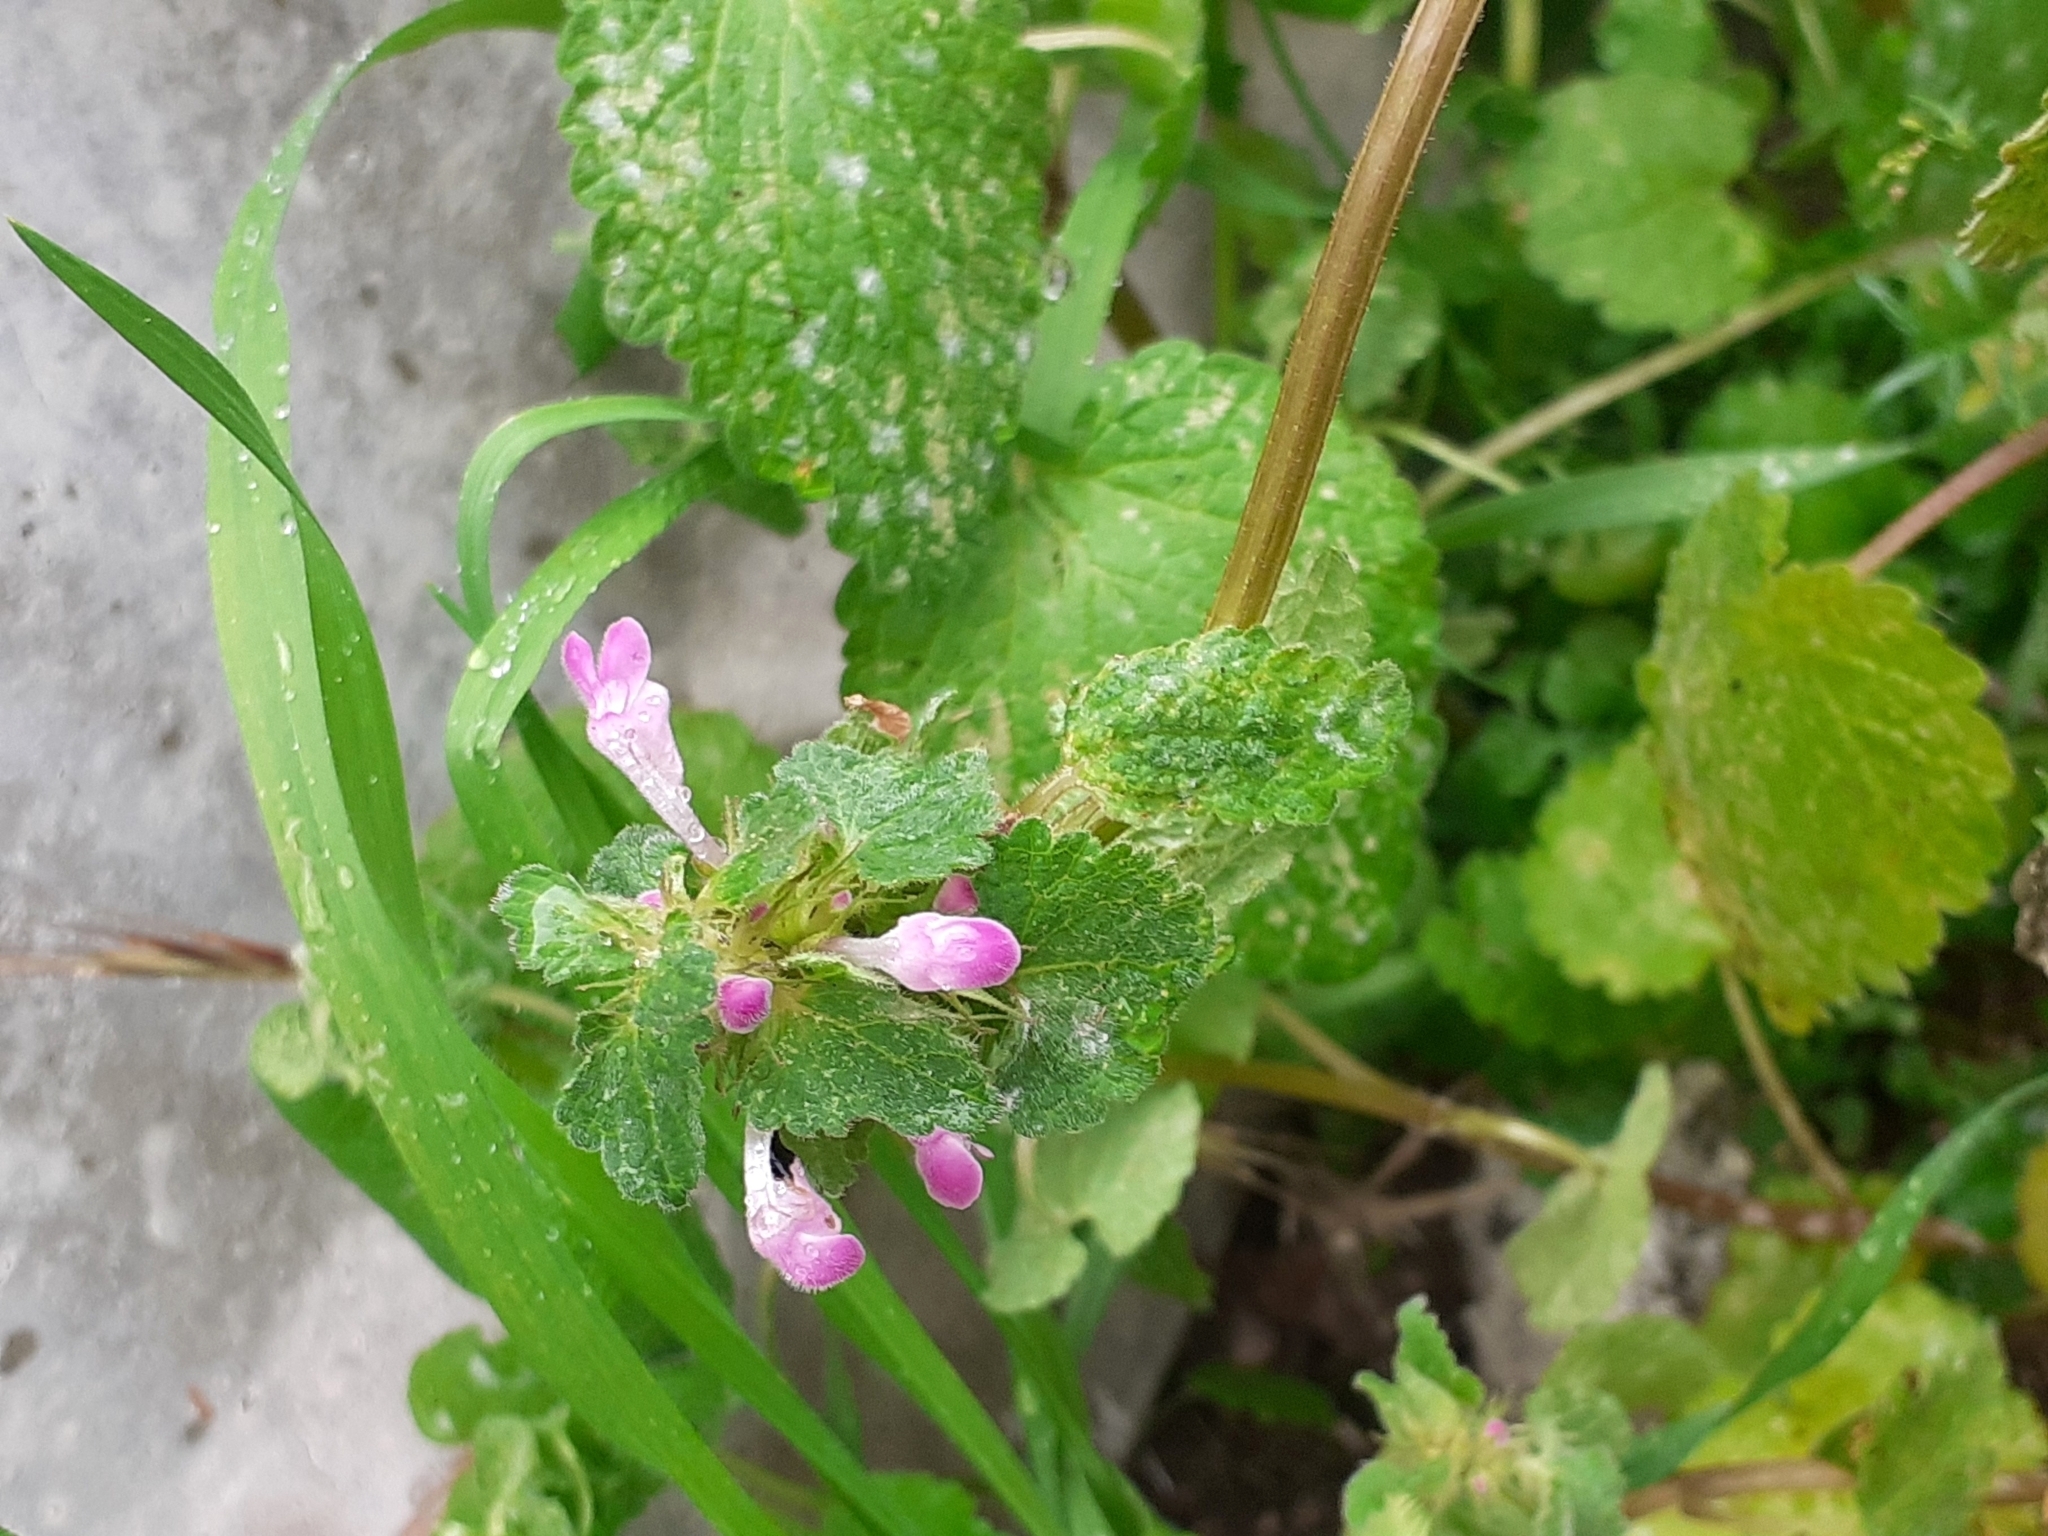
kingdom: Plantae
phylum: Tracheophyta
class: Magnoliopsida
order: Lamiales
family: Lamiaceae
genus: Lamium
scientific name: Lamium purpureum
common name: Red dead-nettle
